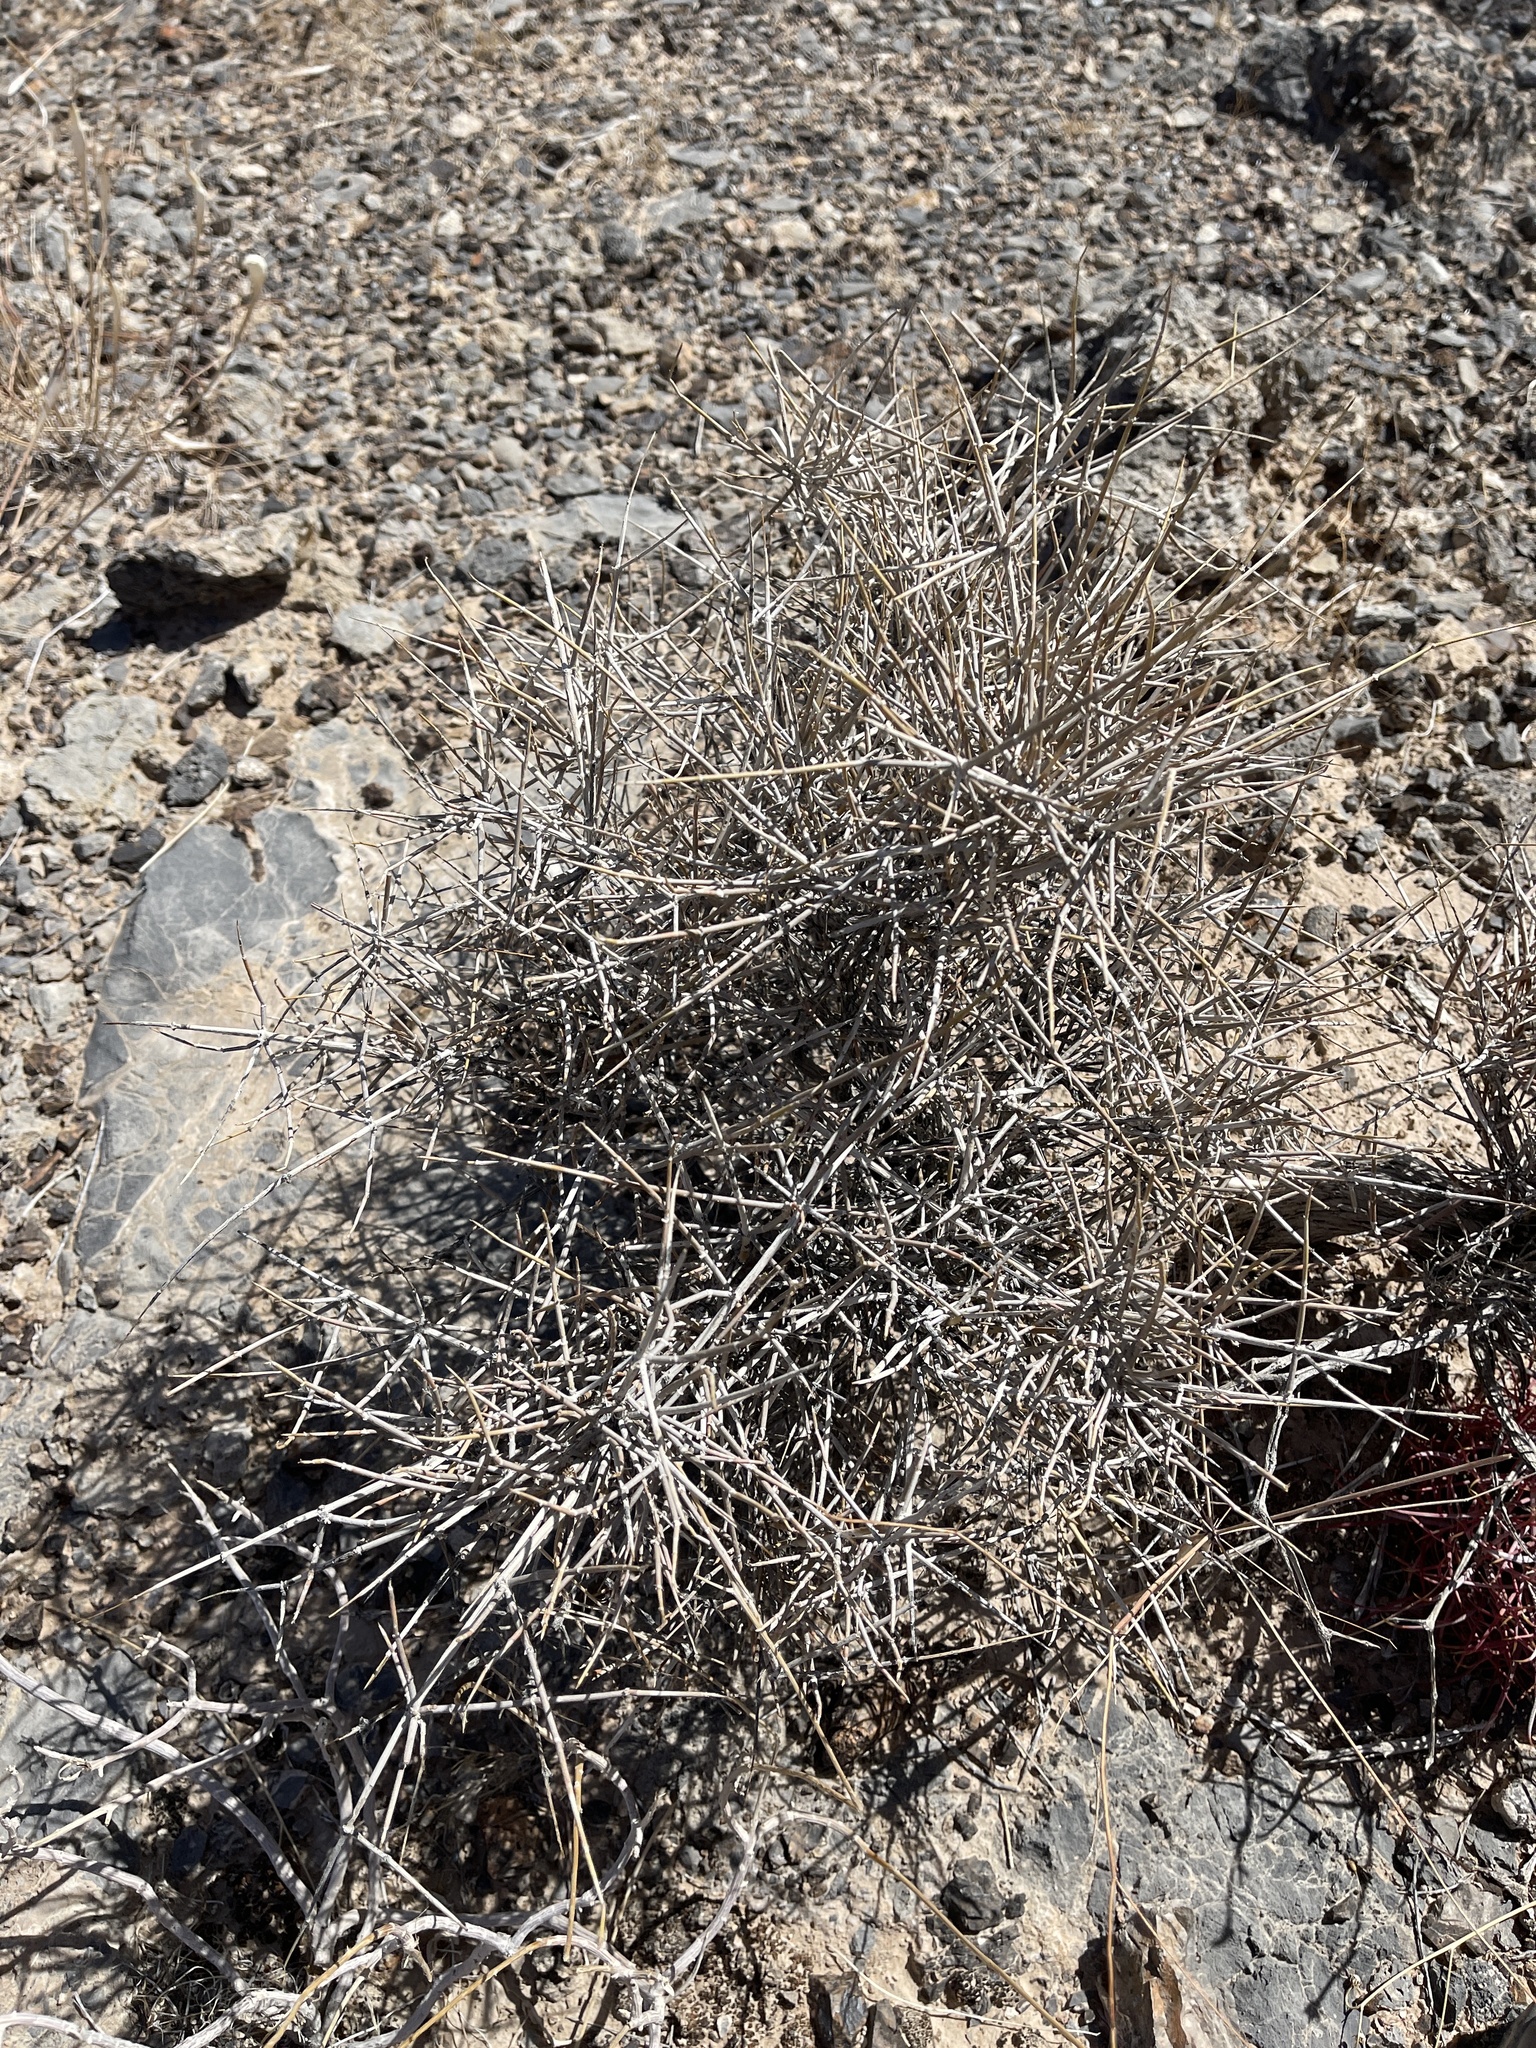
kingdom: Plantae
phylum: Tracheophyta
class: Gnetopsida
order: Ephedrales
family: Ephedraceae
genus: Ephedra
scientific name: Ephedra nevadensis
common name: Gray ephedra
